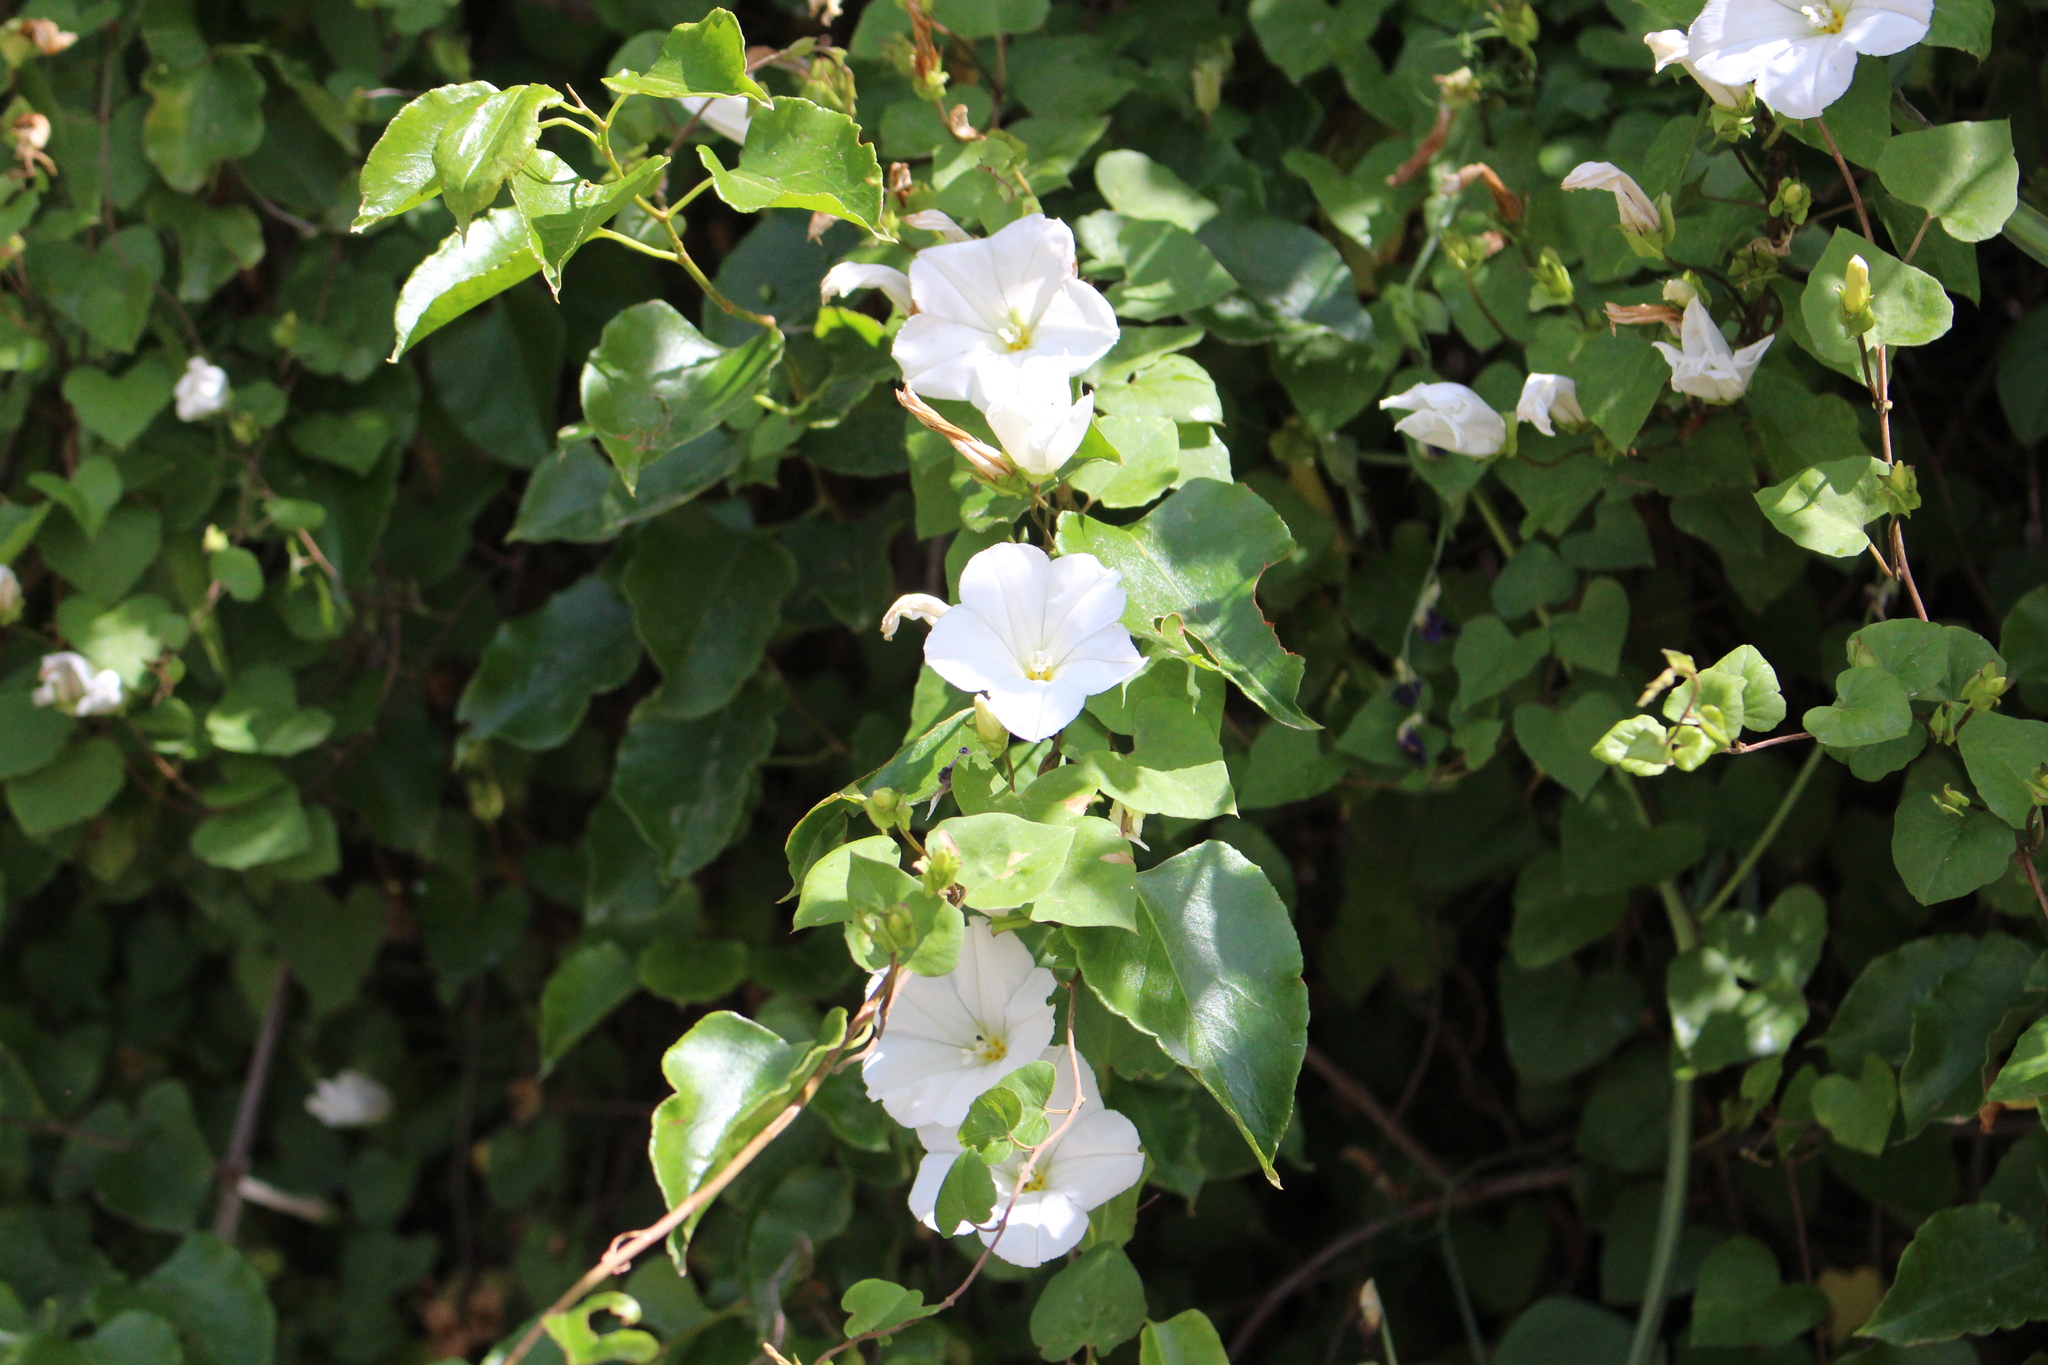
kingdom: Plantae
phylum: Tracheophyta
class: Magnoliopsida
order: Solanales
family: Convolvulaceae
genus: Calystegia
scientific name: Calystegia tuguriorum
